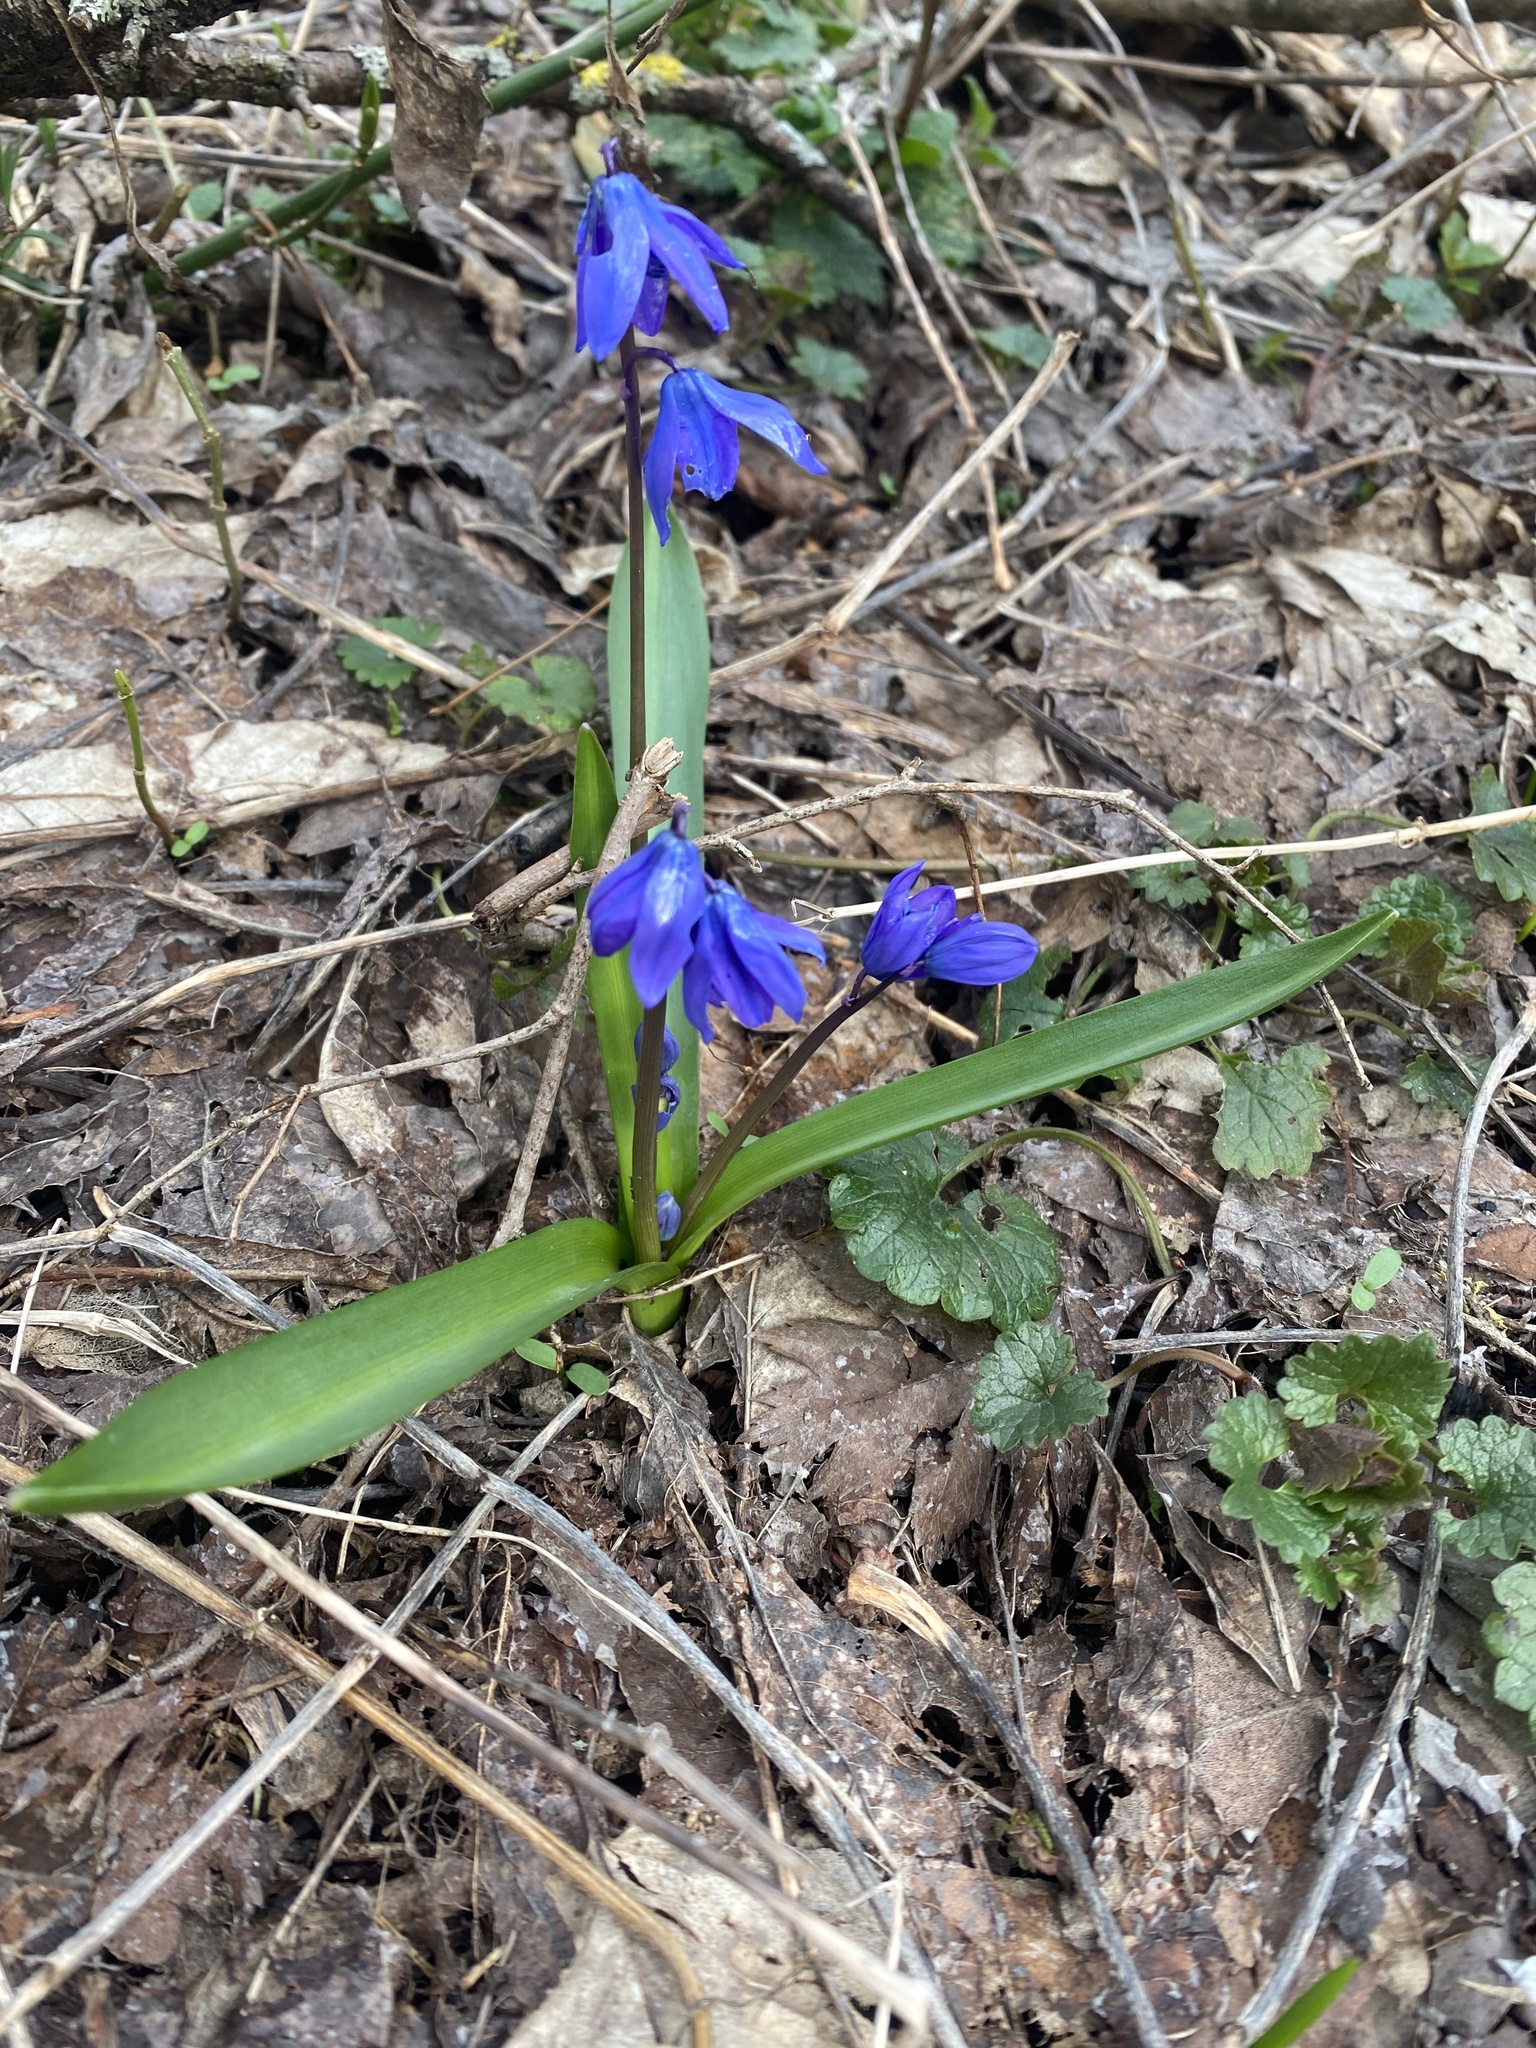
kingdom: Plantae
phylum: Tracheophyta
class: Liliopsida
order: Asparagales
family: Asparagaceae
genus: Scilla
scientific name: Scilla siberica
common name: Siberian squill
